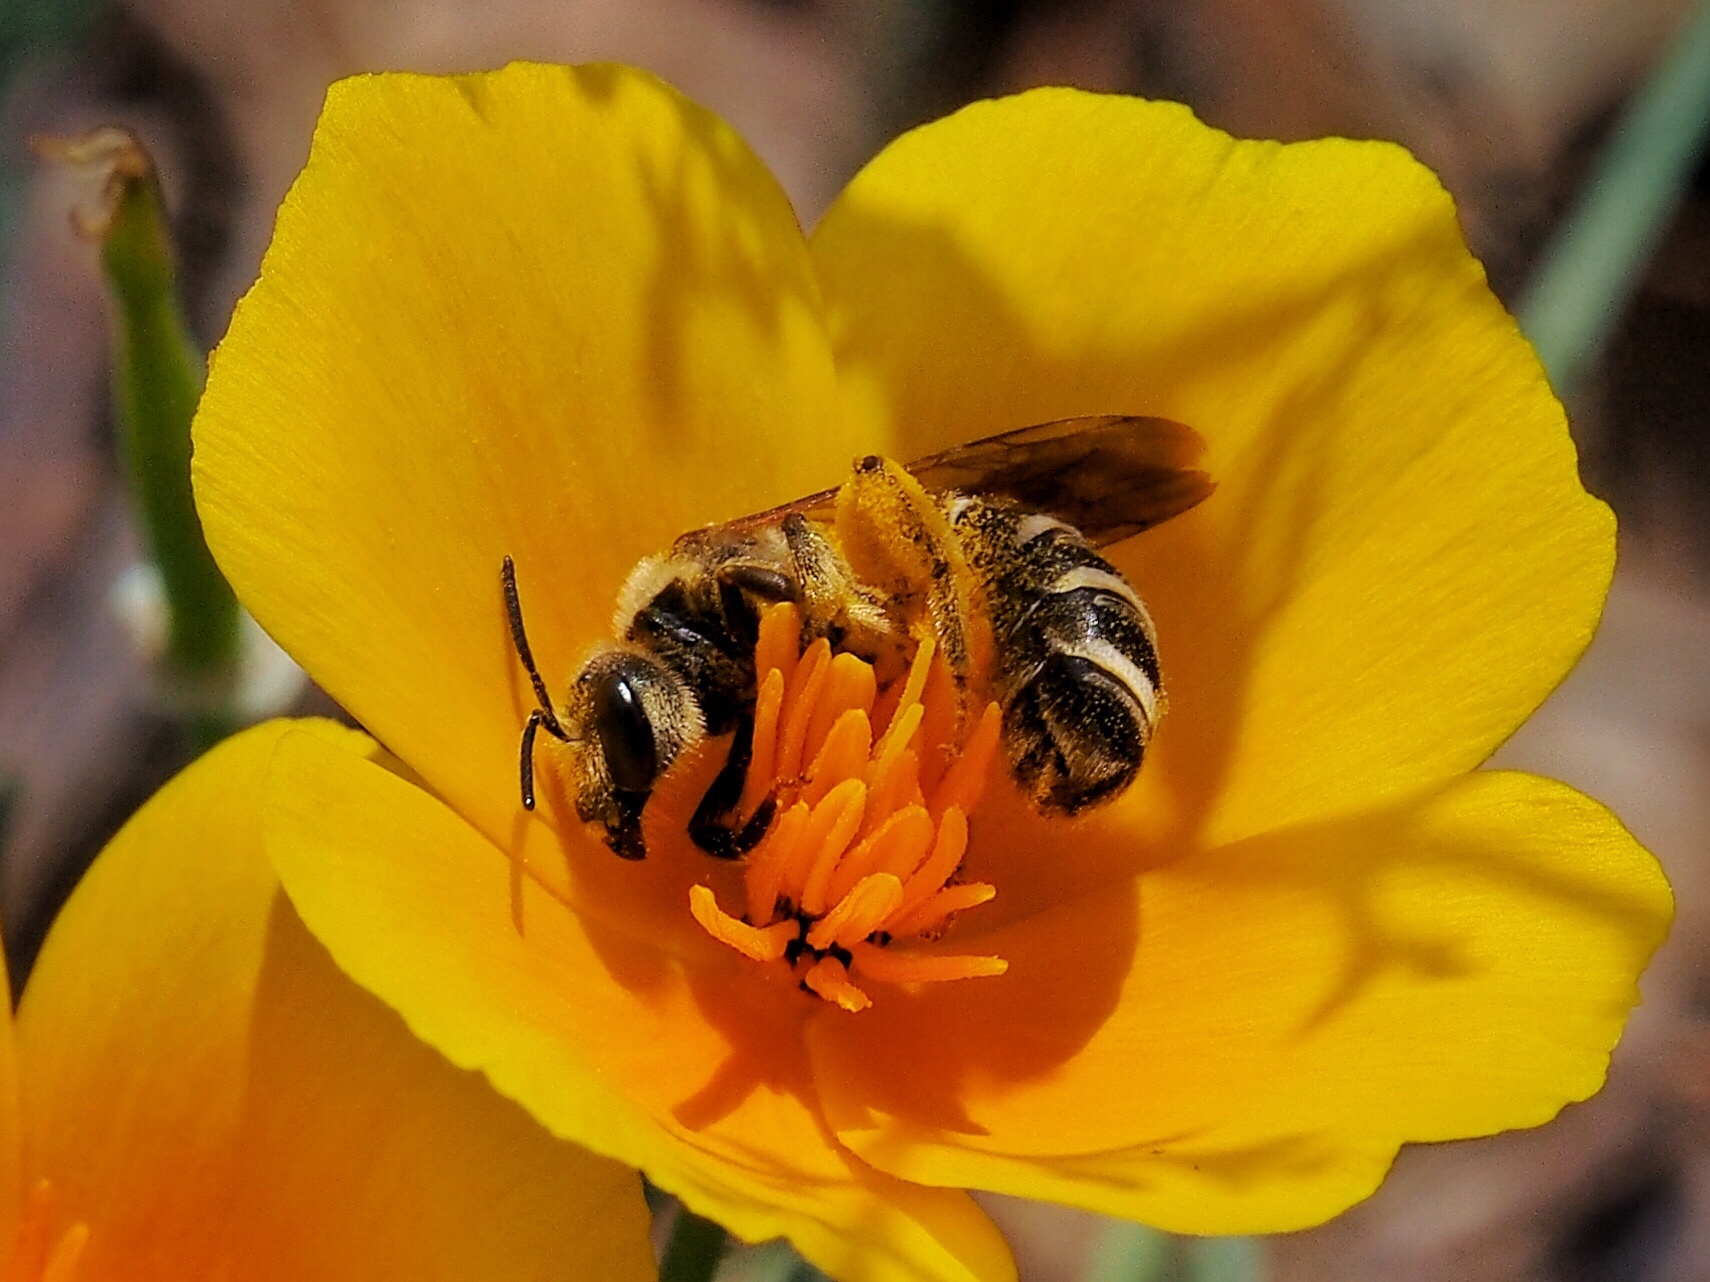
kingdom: Animalia
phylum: Arthropoda
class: Insecta
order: Hymenoptera
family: Halictidae
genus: Halictus
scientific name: Halictus farinosus
